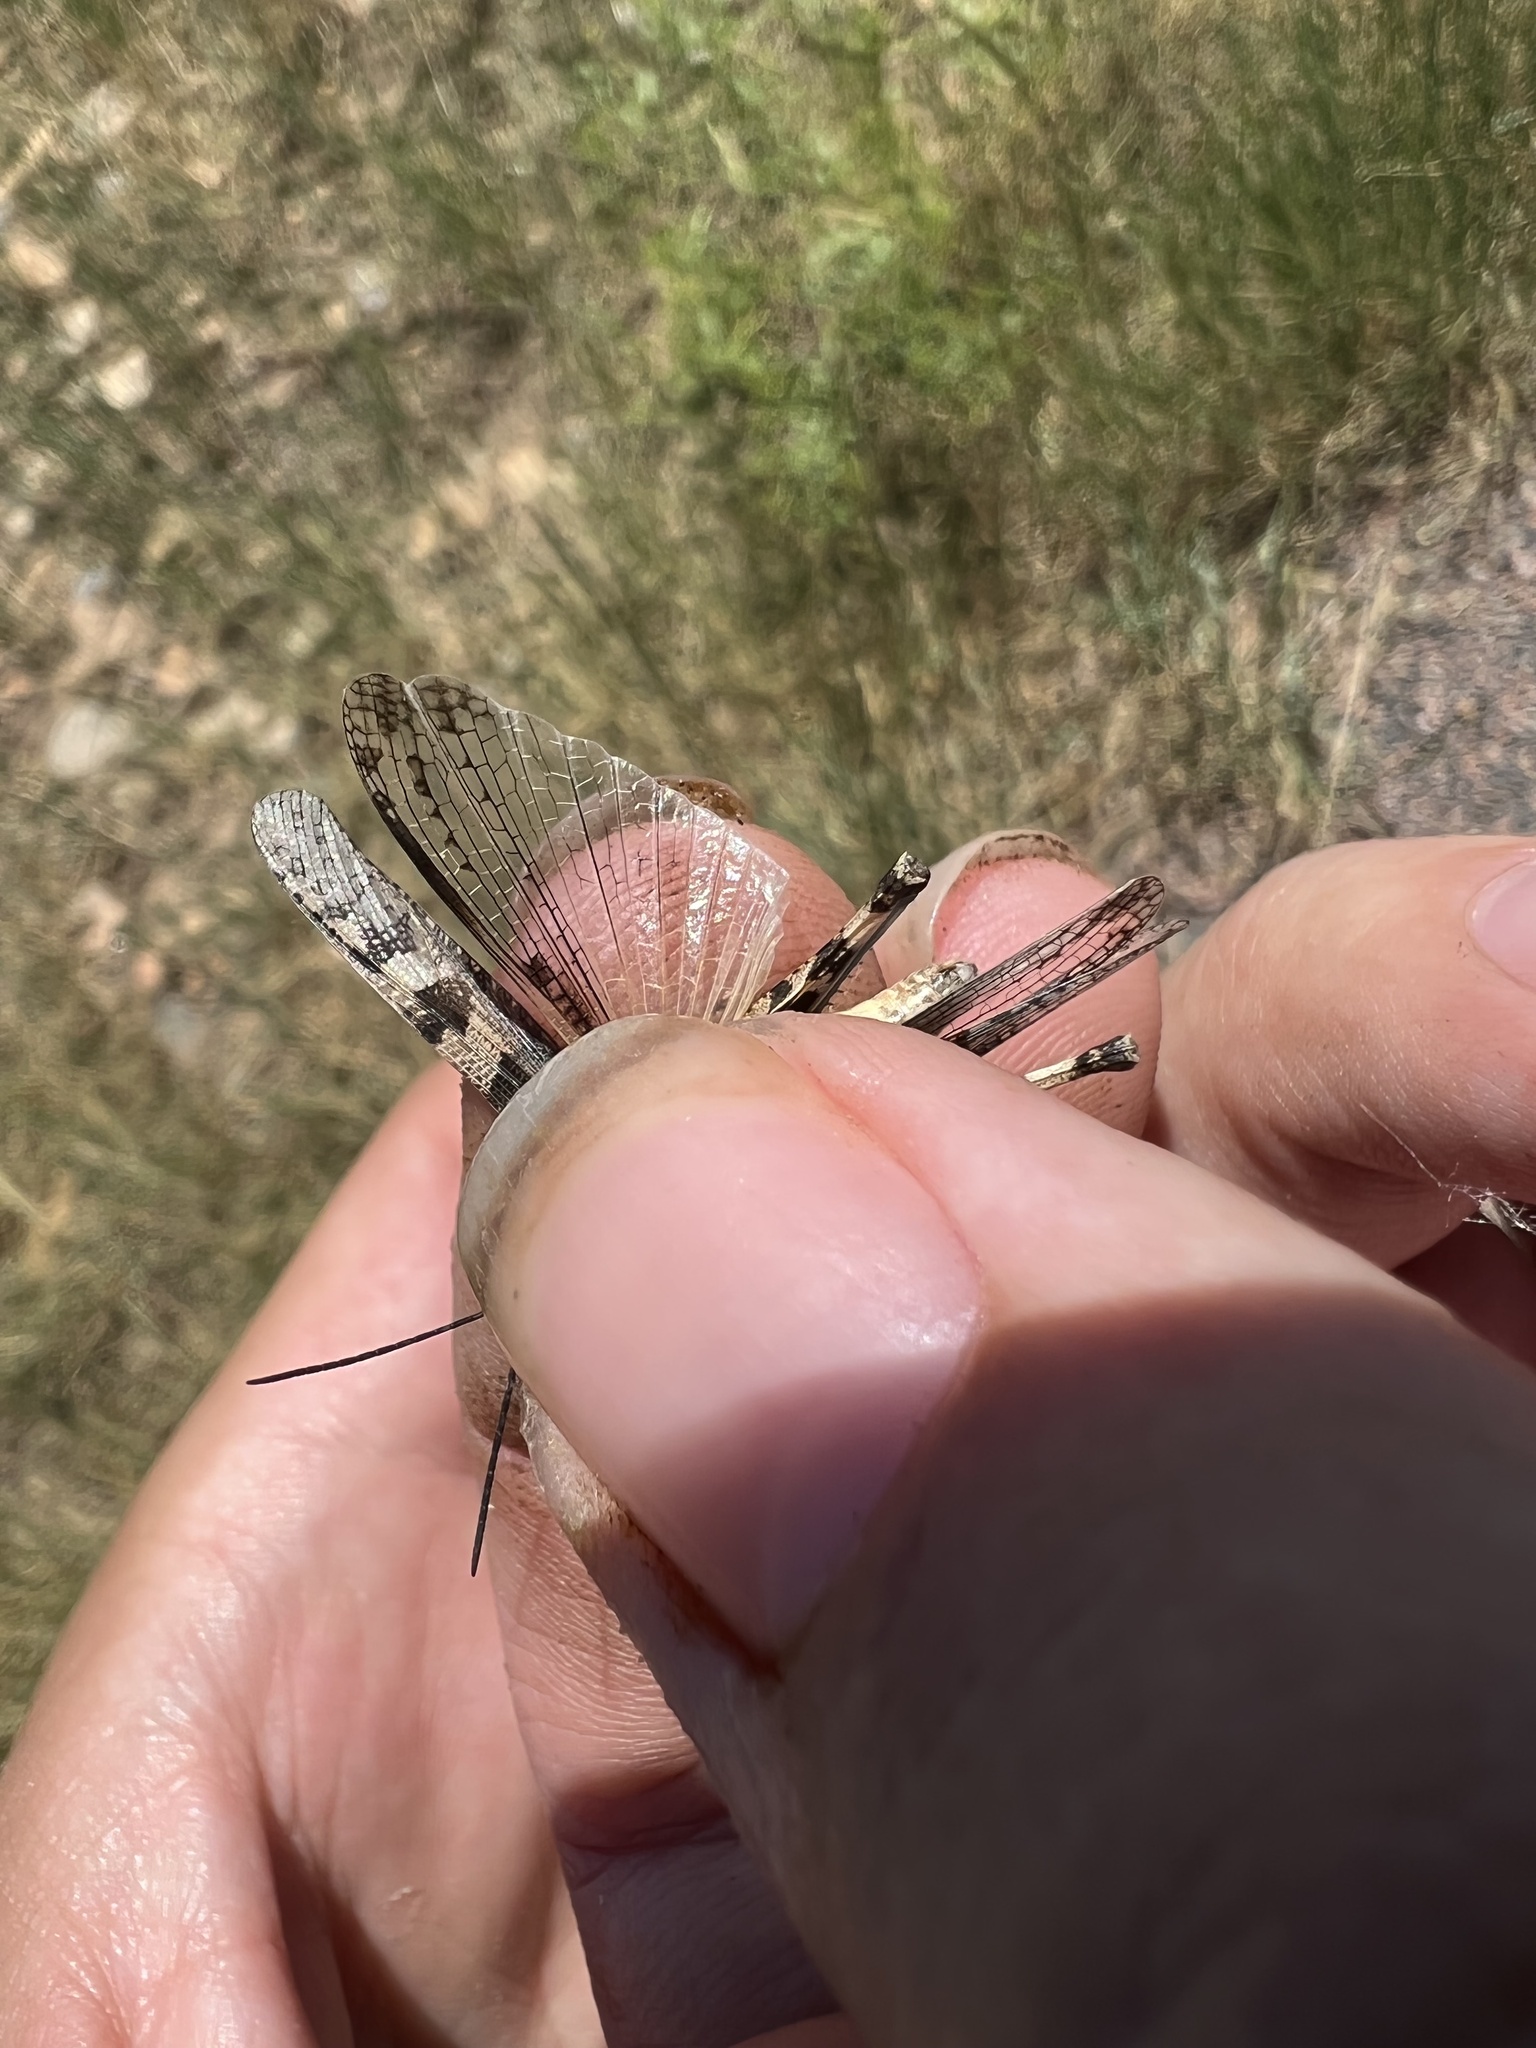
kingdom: Animalia
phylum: Arthropoda
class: Insecta
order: Orthoptera
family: Acrididae
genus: Trachyrhachys
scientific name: Trachyrhachys kiowa
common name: Kiowa grasshopper
